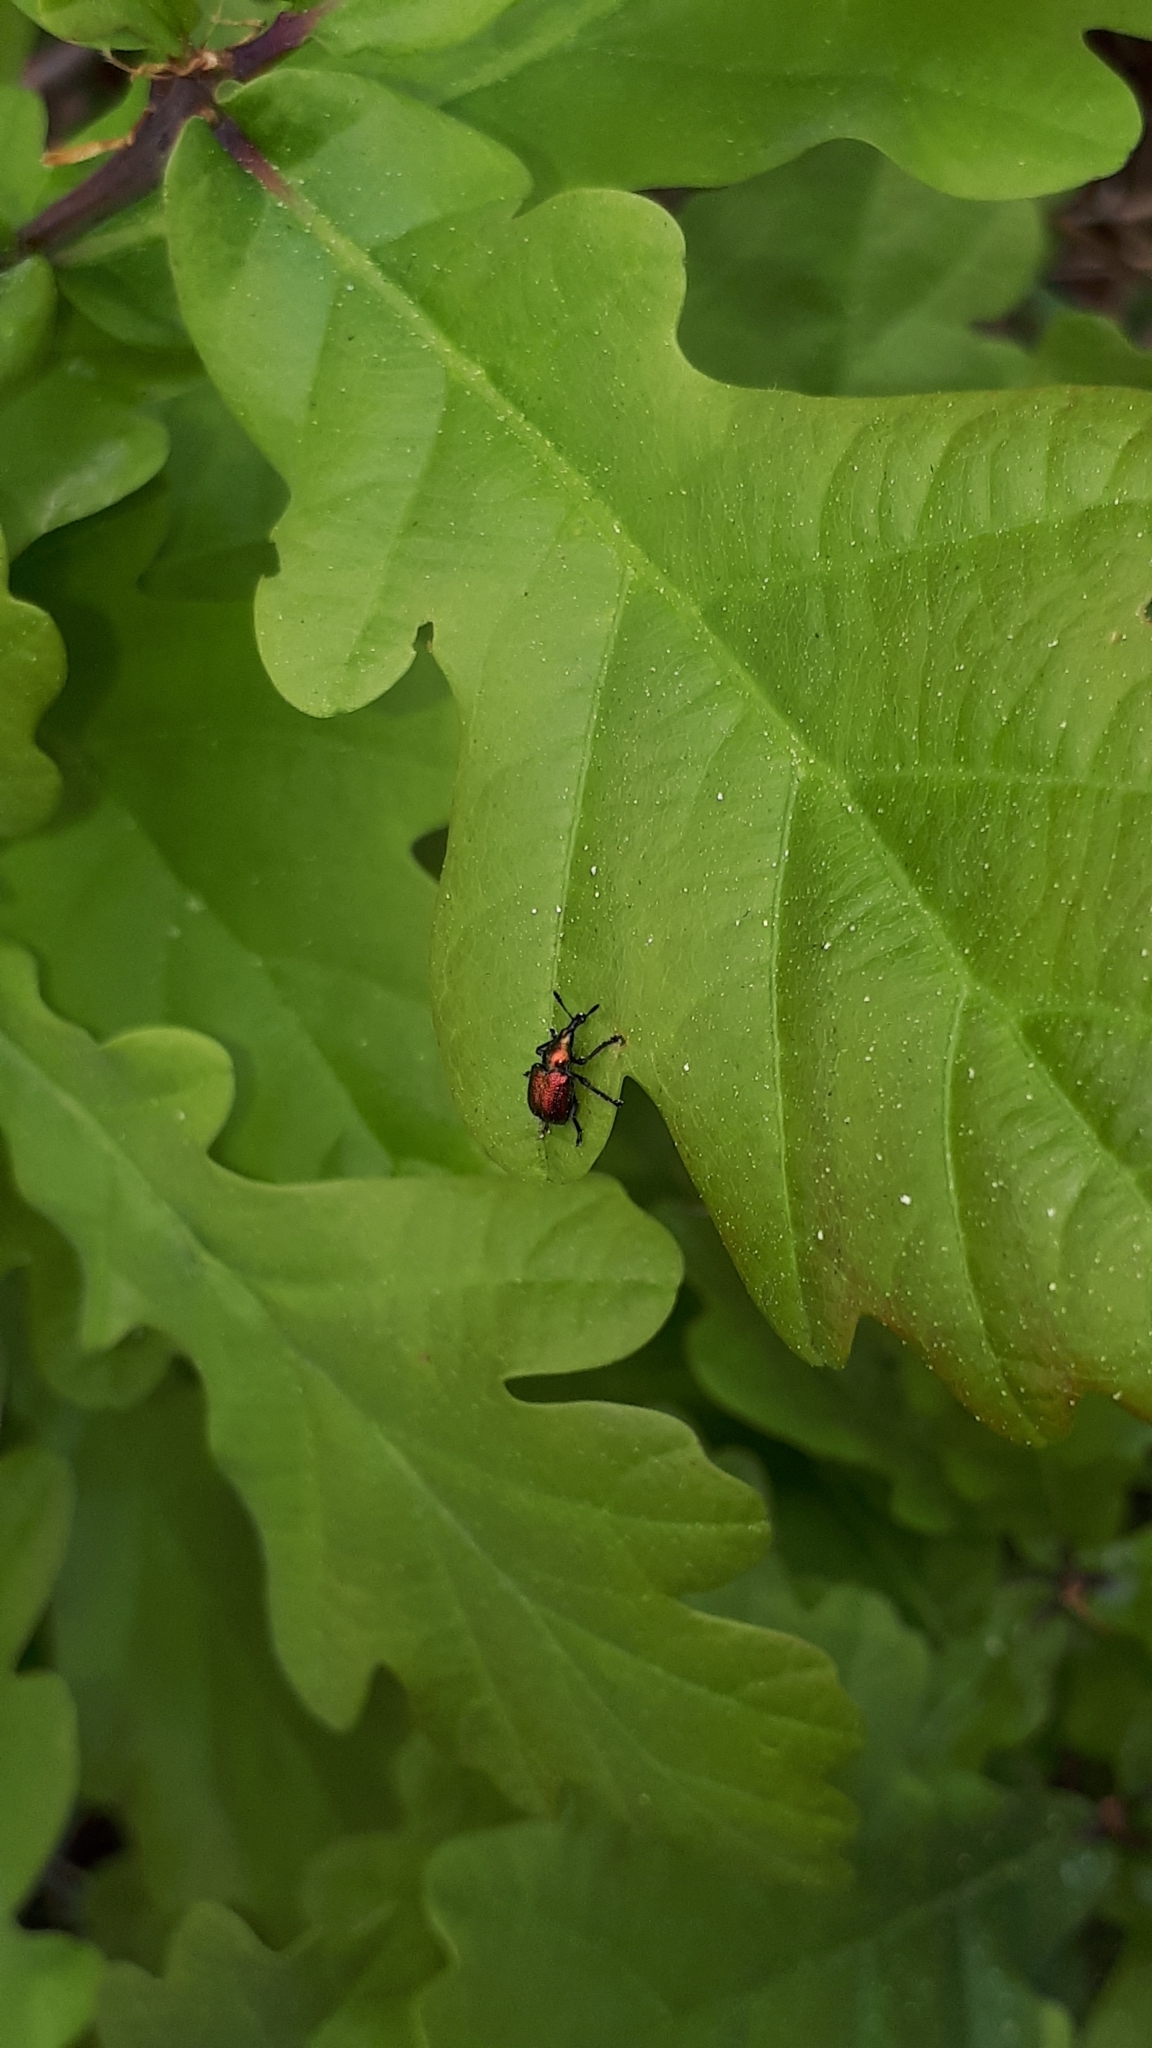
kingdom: Animalia
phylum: Arthropoda
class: Insecta
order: Coleoptera
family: Attelabidae
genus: Byctiscus
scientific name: Byctiscus populi
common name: Leaf-rolling weevil
